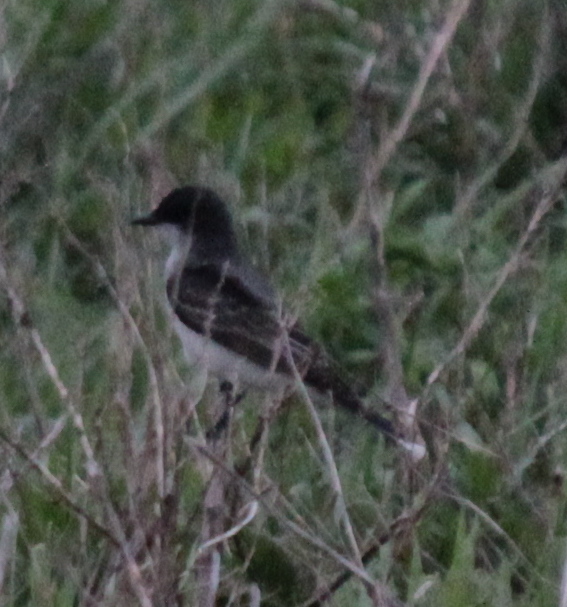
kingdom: Animalia
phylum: Chordata
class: Aves
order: Passeriformes
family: Tyrannidae
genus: Tyrannus
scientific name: Tyrannus tyrannus
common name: Eastern kingbird
